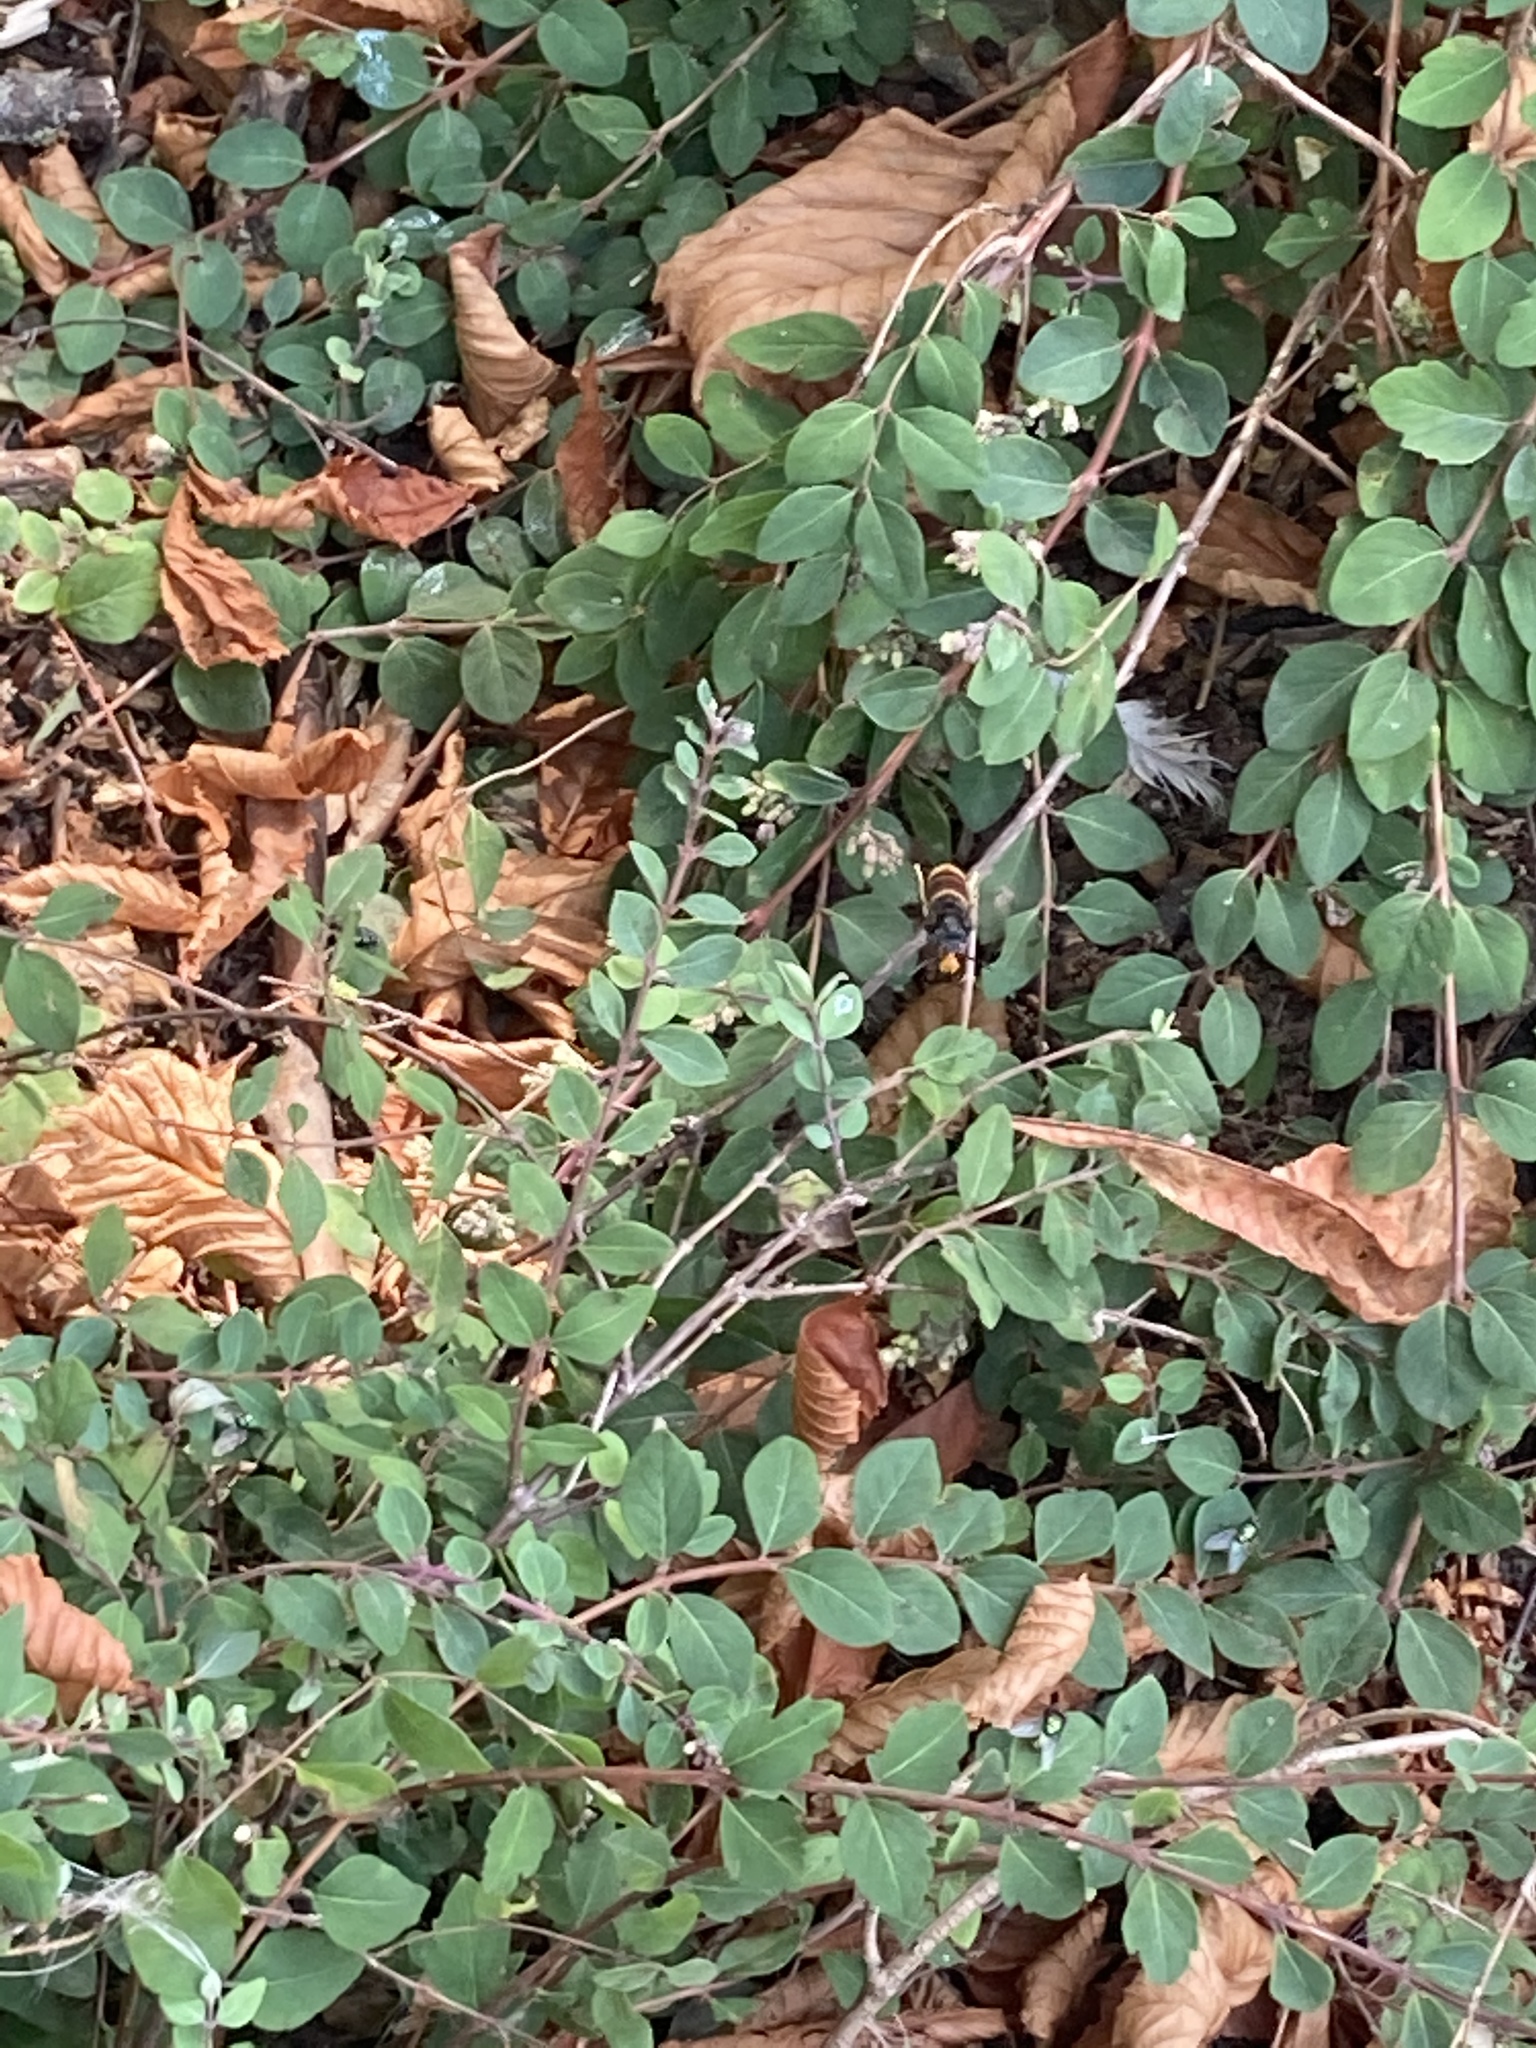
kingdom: Animalia
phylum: Arthropoda
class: Insecta
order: Hymenoptera
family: Vespidae
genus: Vespa
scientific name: Vespa velutina
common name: Asian hornet
